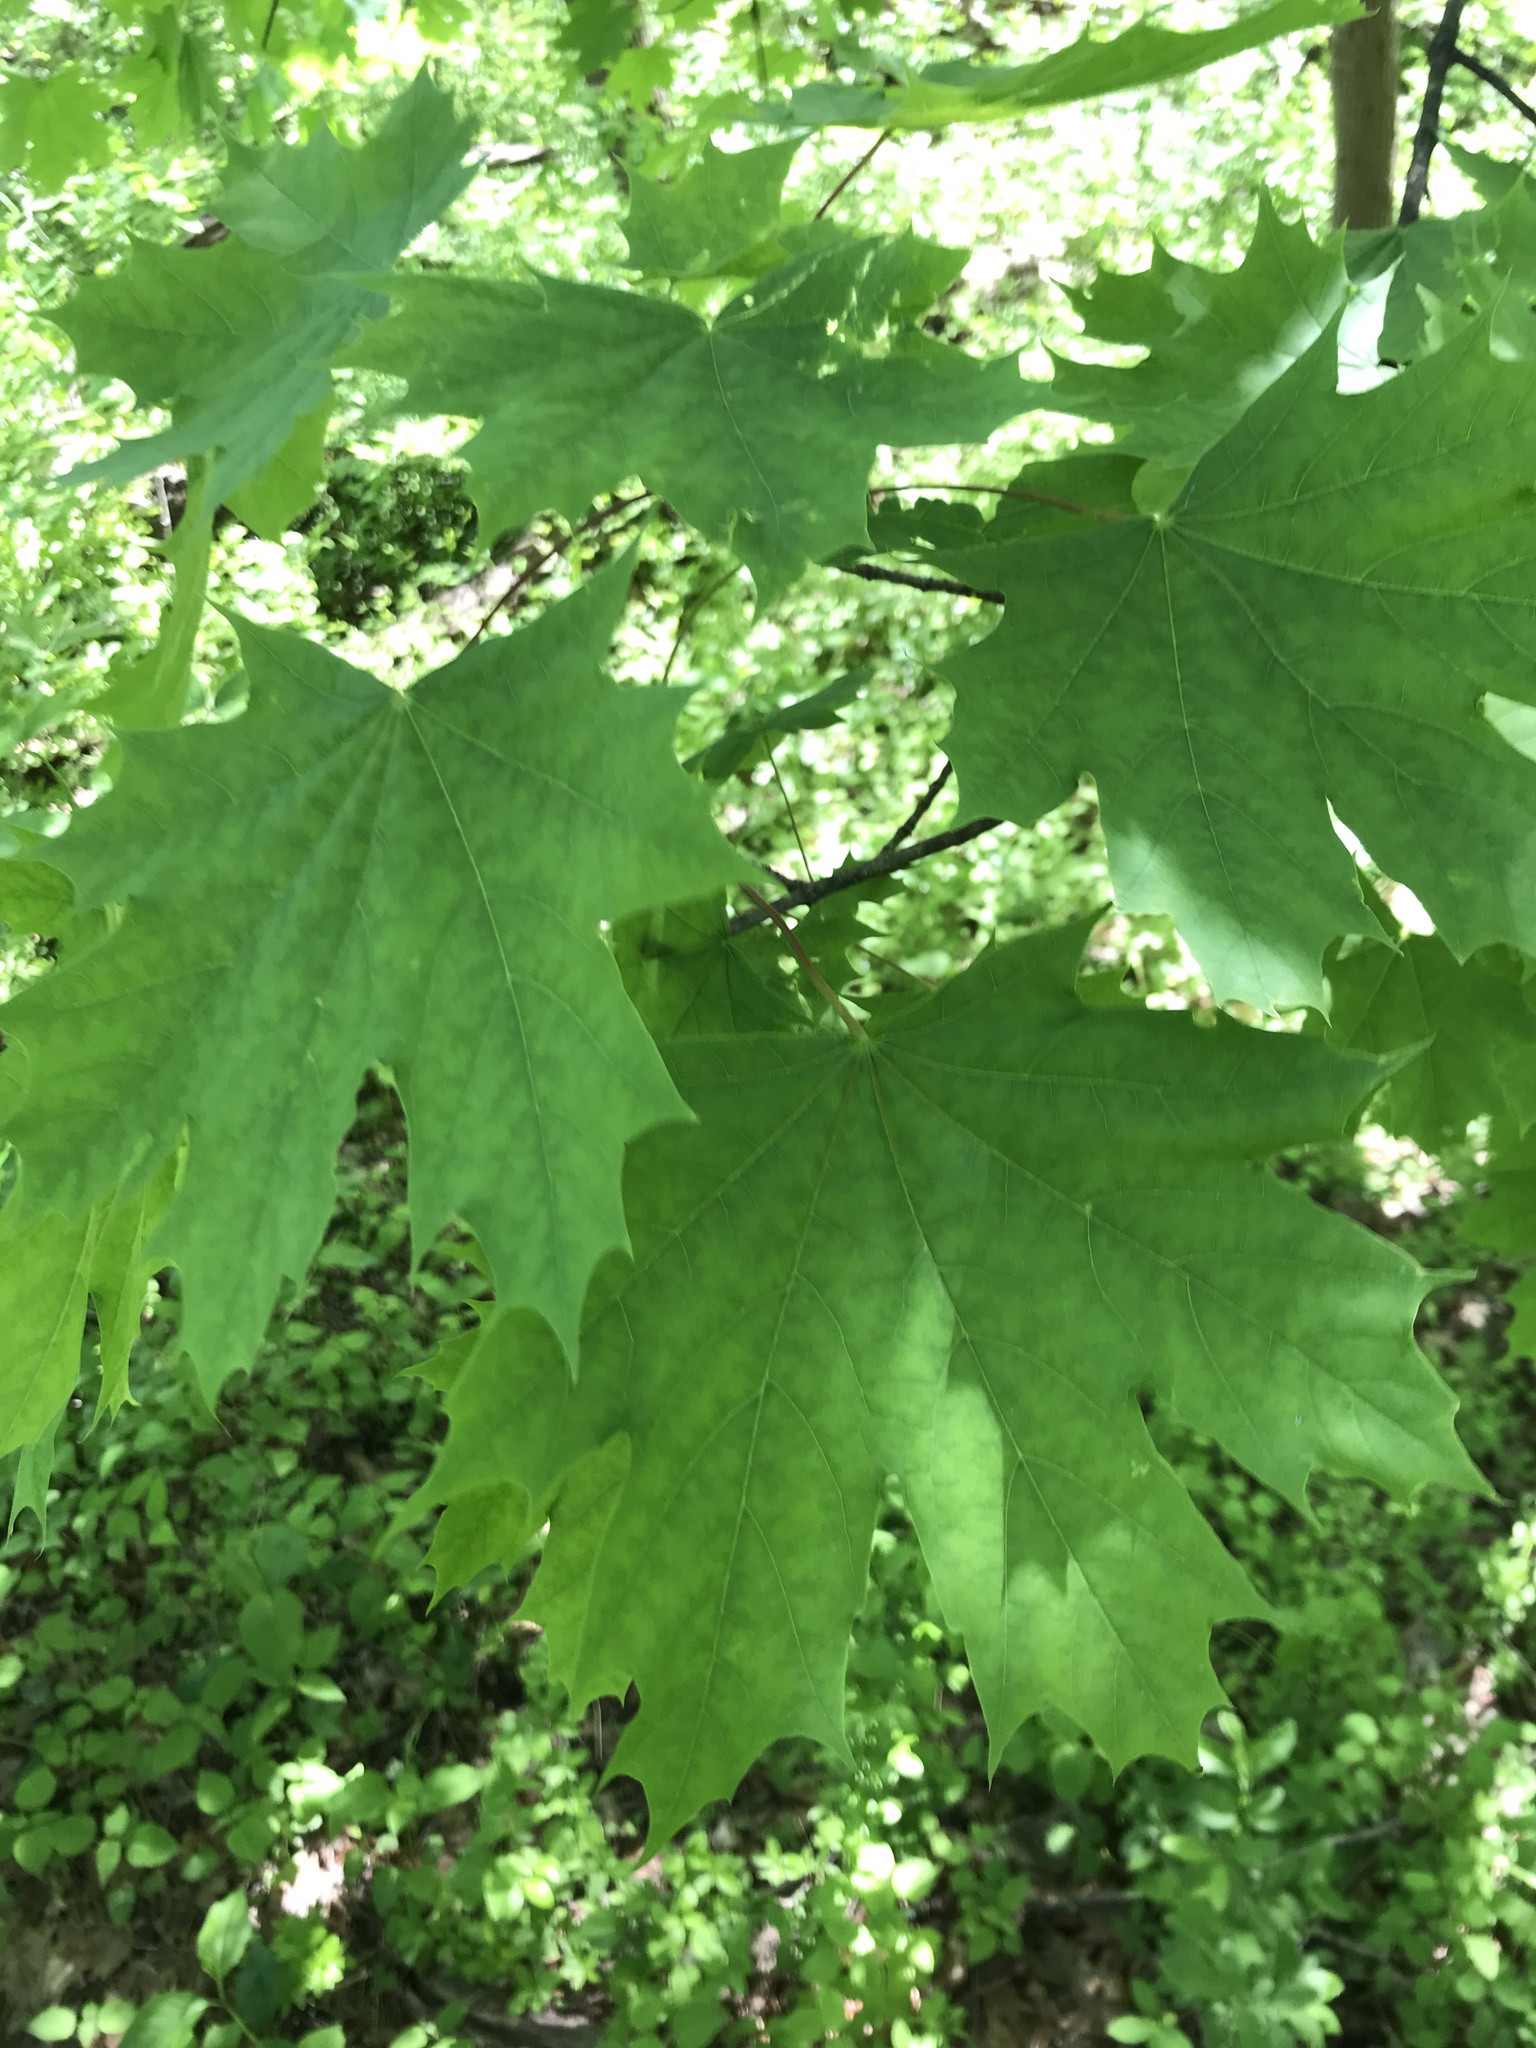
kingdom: Plantae
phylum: Tracheophyta
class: Magnoliopsida
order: Sapindales
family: Sapindaceae
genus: Acer
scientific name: Acer platanoides
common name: Norway maple
